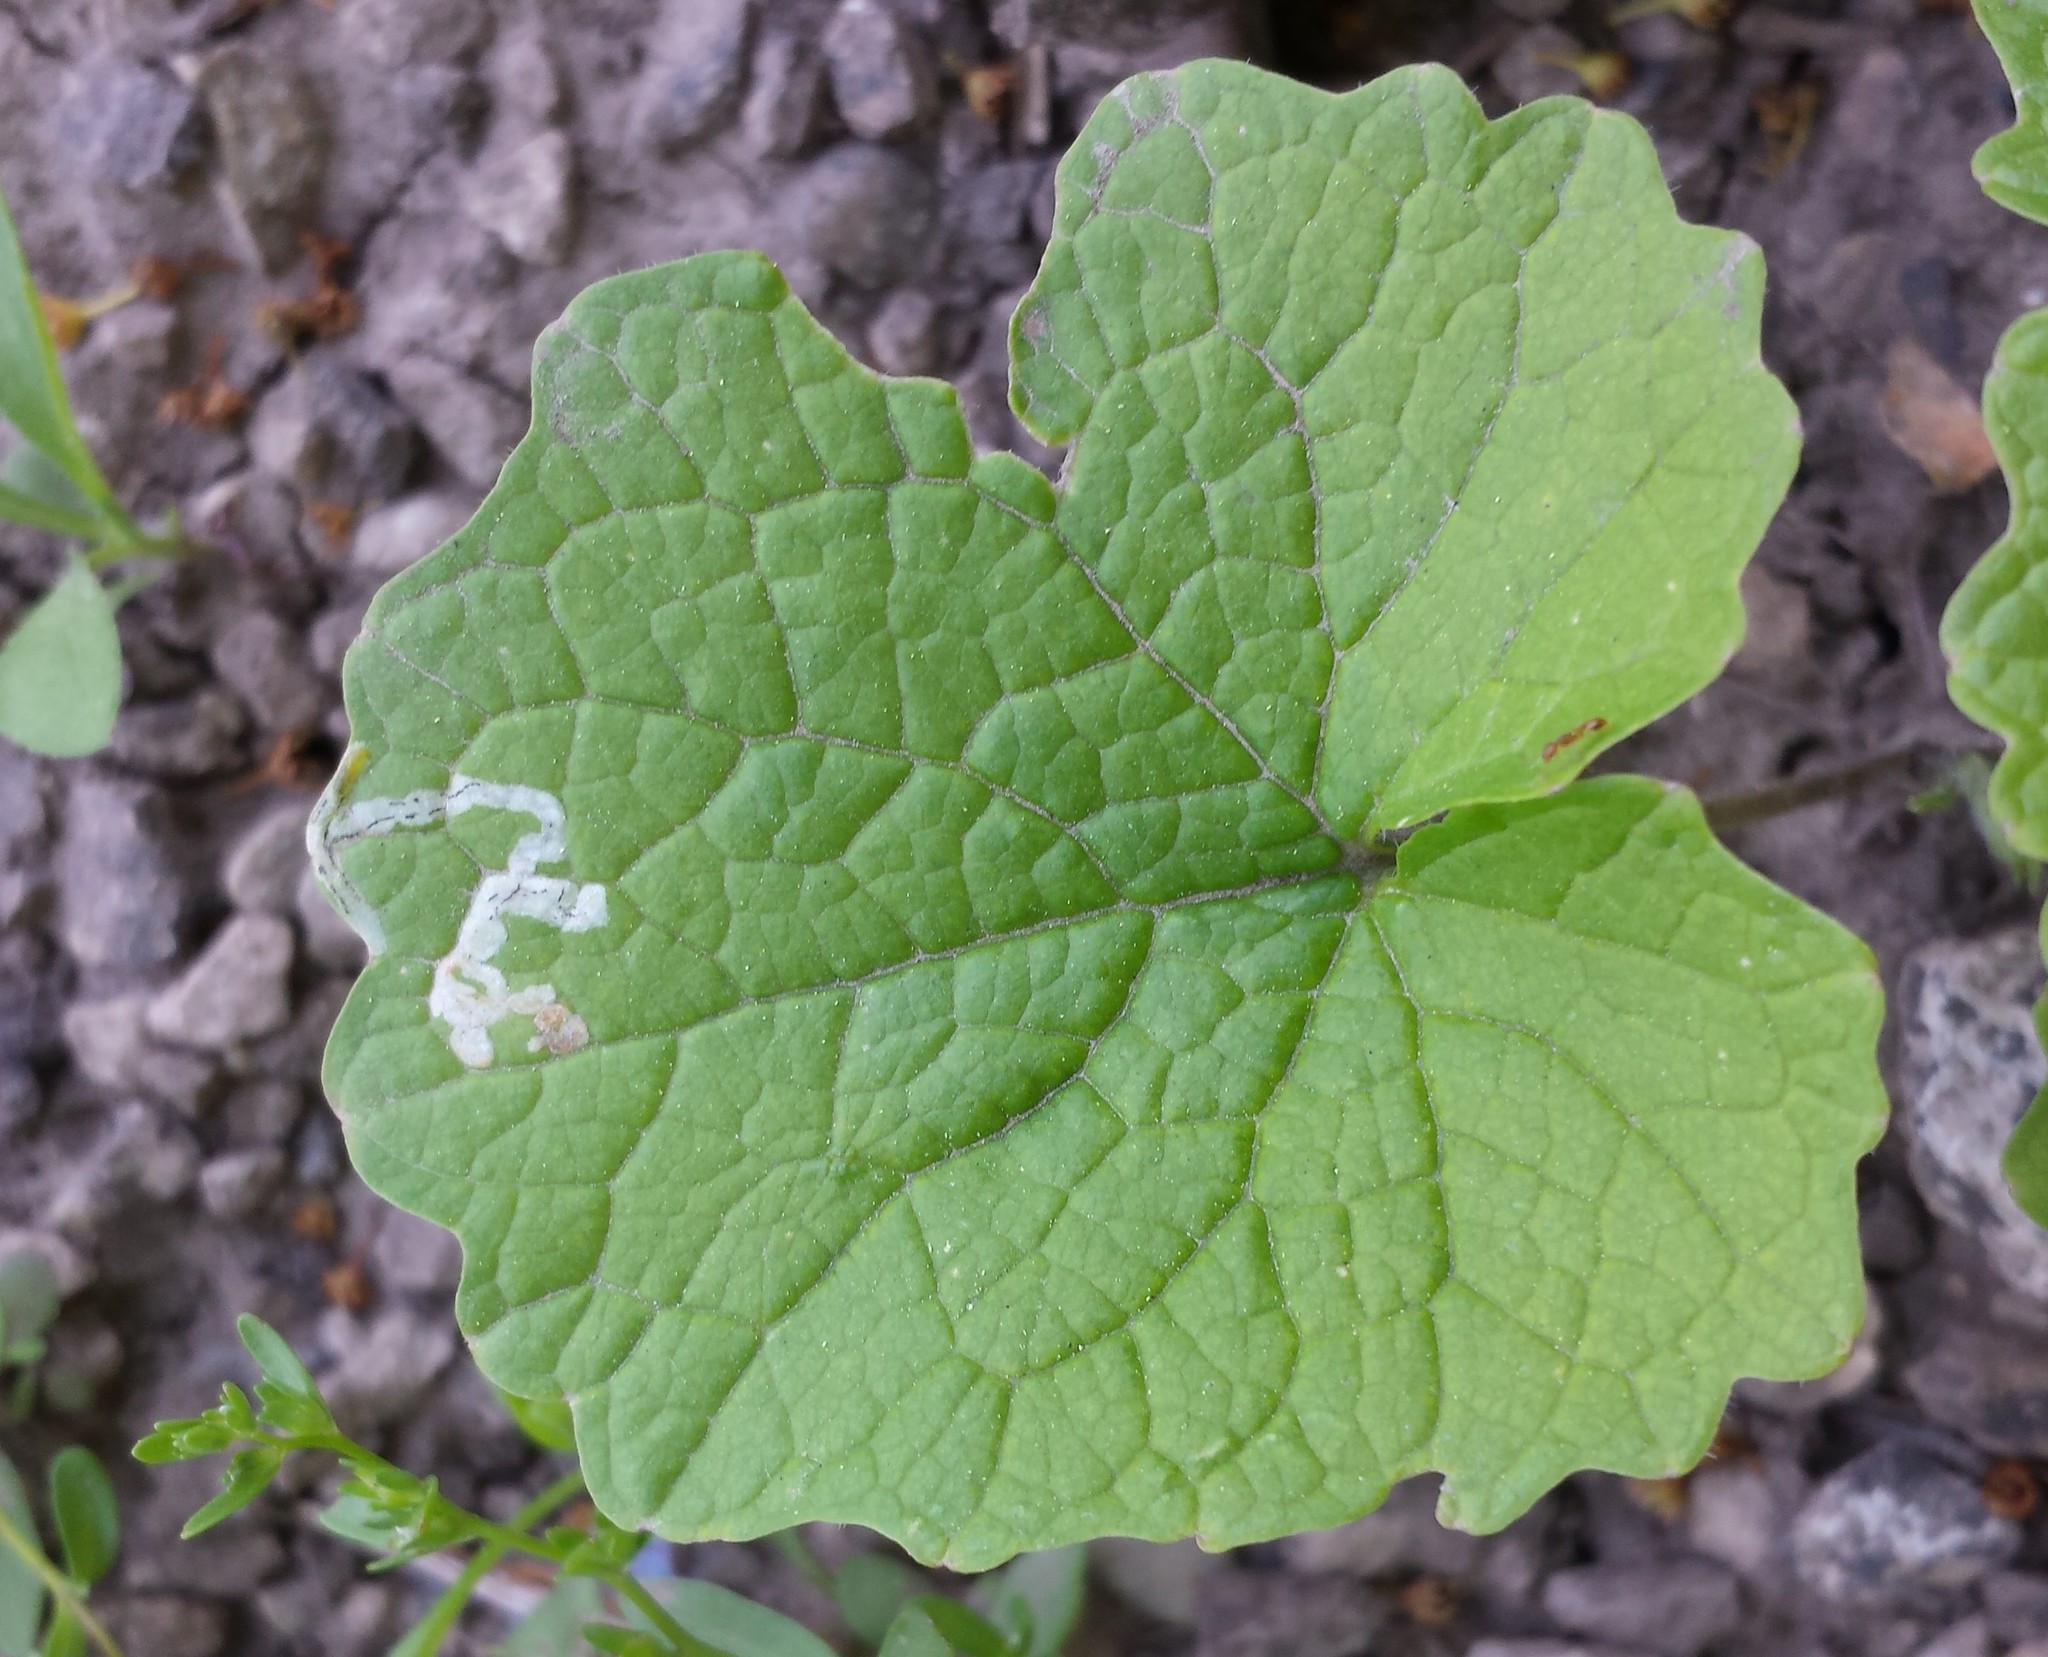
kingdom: Animalia
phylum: Arthropoda
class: Insecta
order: Diptera
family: Agromyzidae
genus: Liriomyza
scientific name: Liriomyza brassicae
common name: Serpentine leaf miner
